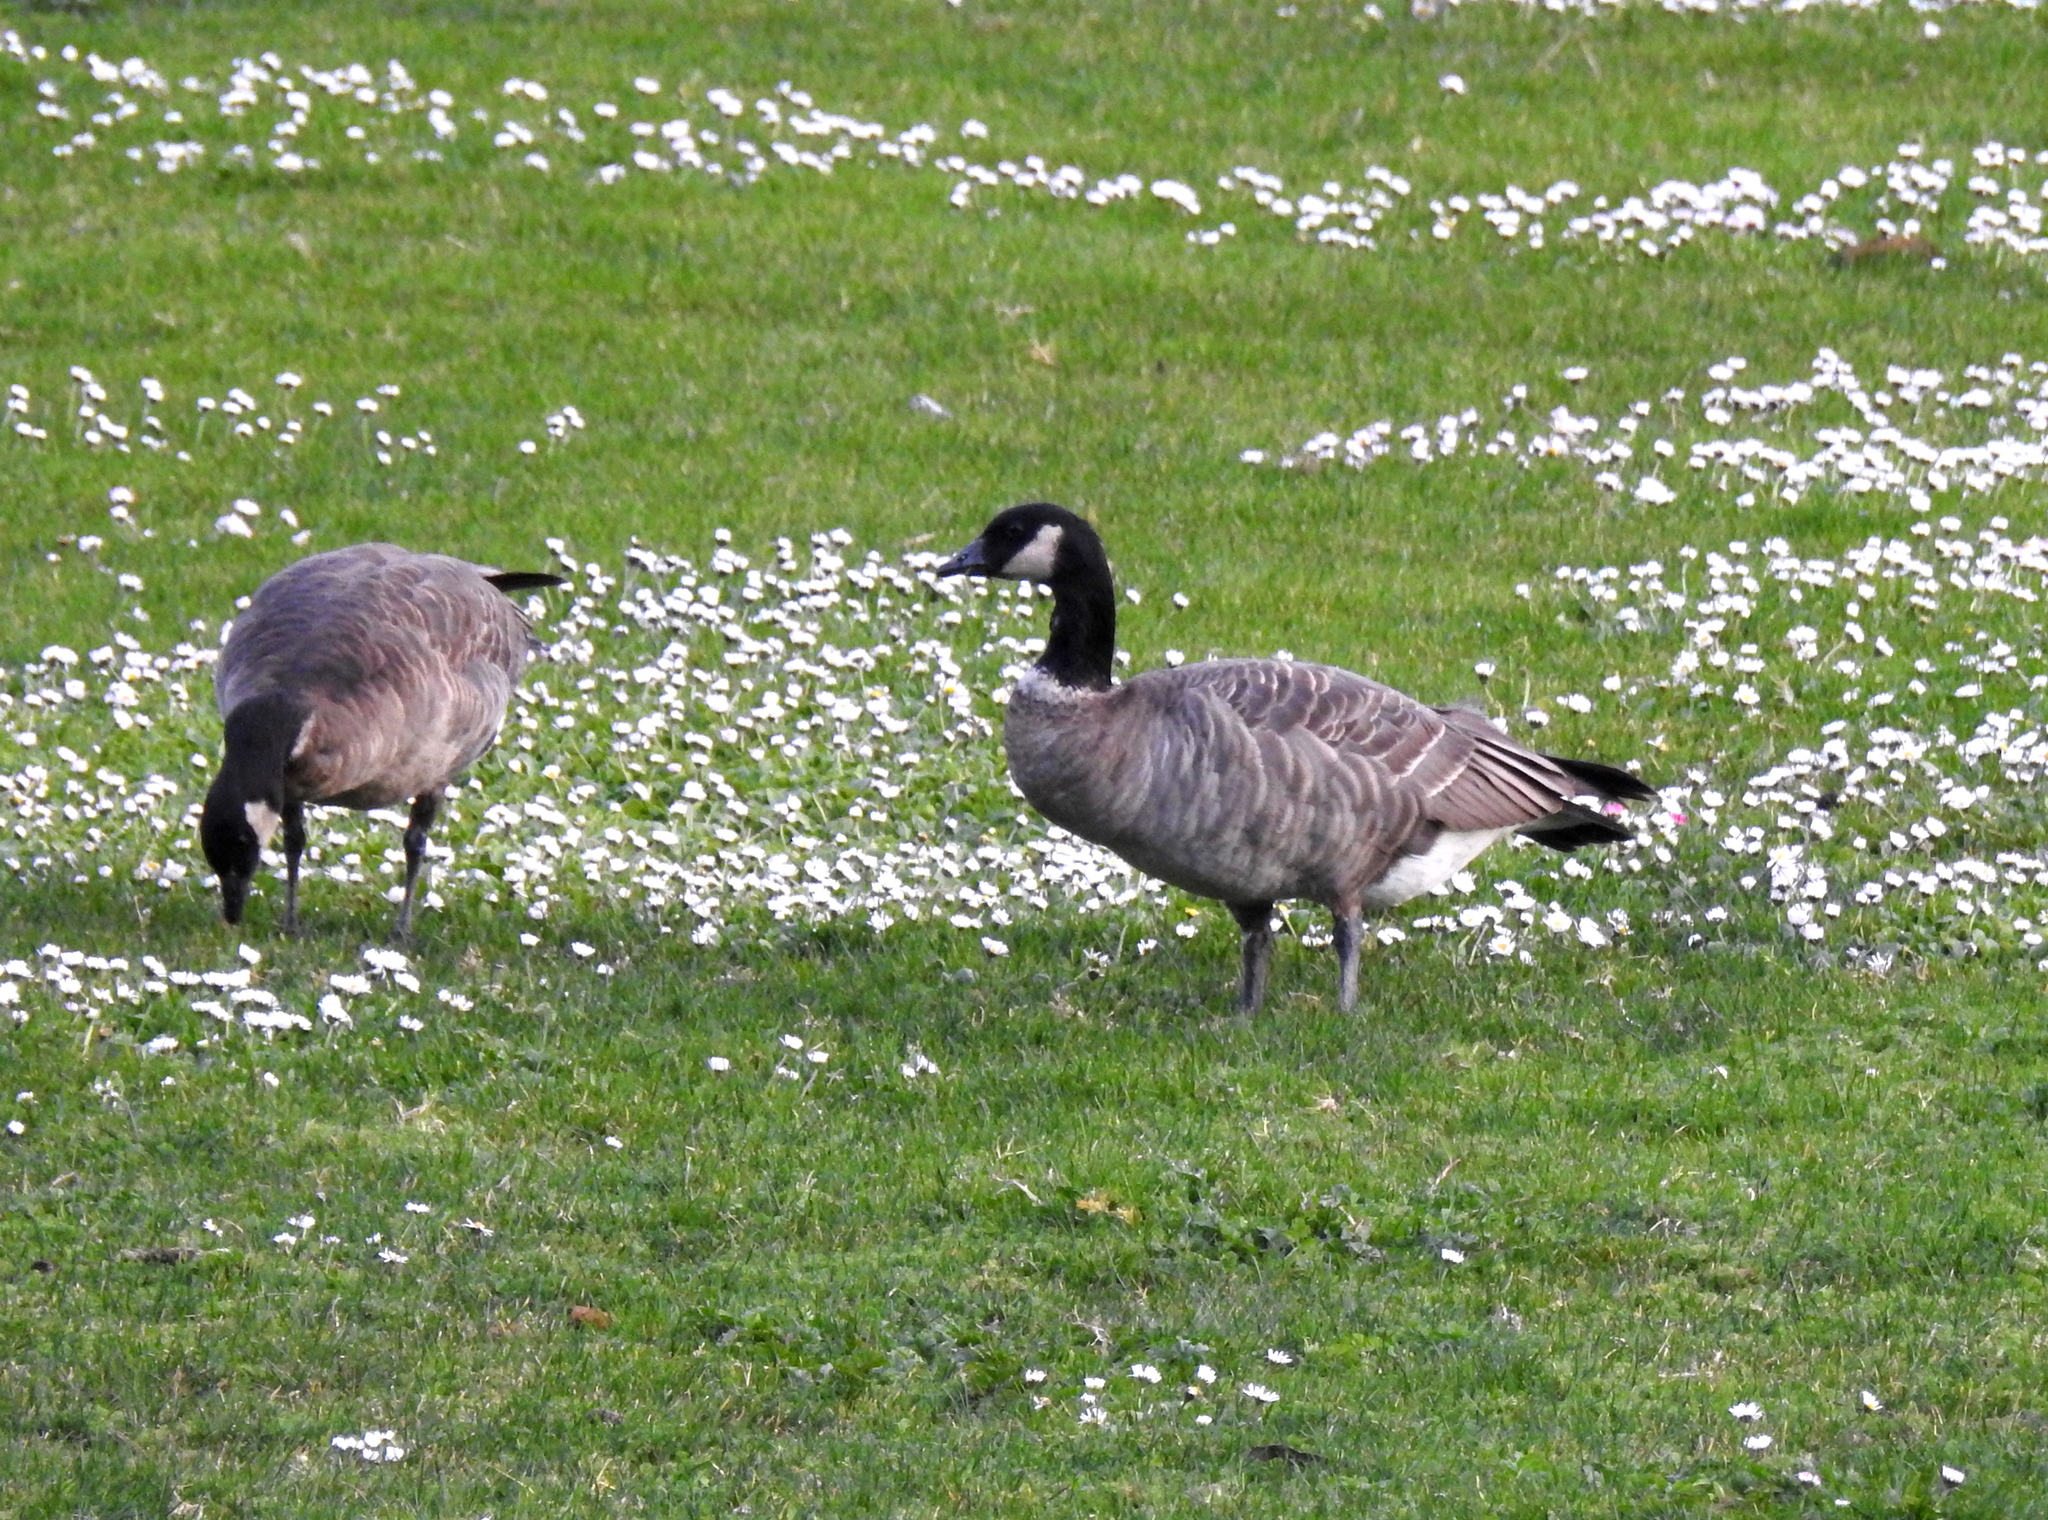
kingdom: Animalia
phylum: Chordata
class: Aves
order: Anseriformes
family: Anatidae
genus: Branta
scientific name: Branta hutchinsii
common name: Cackling goose
